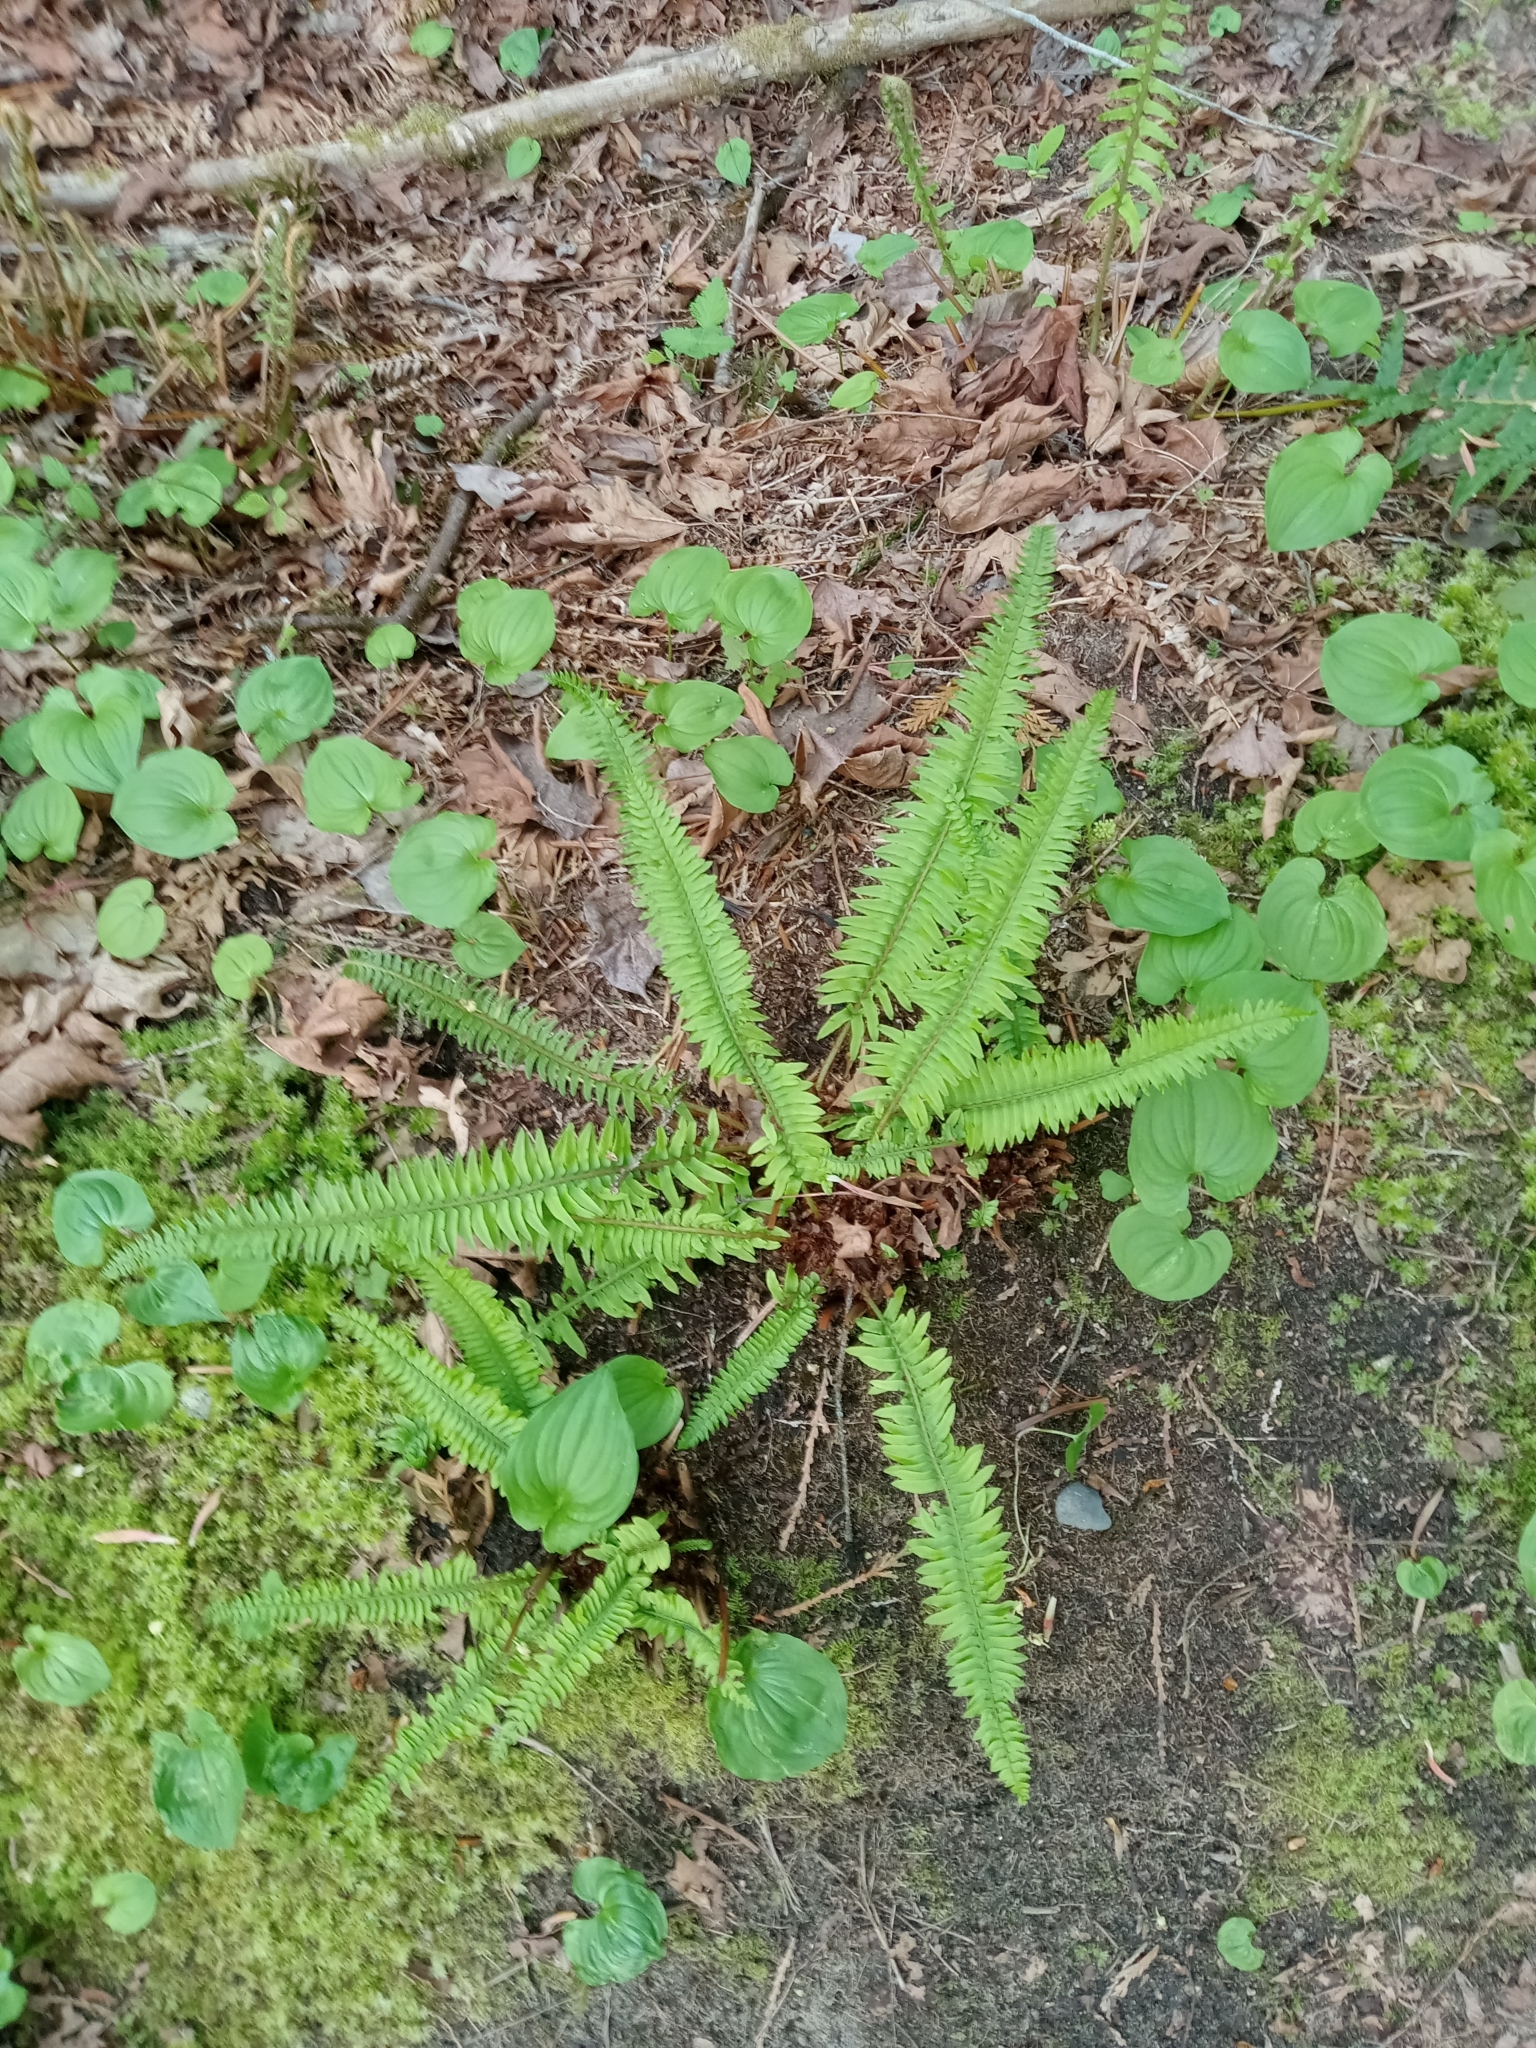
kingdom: Plantae
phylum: Tracheophyta
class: Polypodiopsida
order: Polypodiales
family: Dryopteridaceae
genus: Polystichum
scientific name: Polystichum munitum
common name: Western sword-fern
